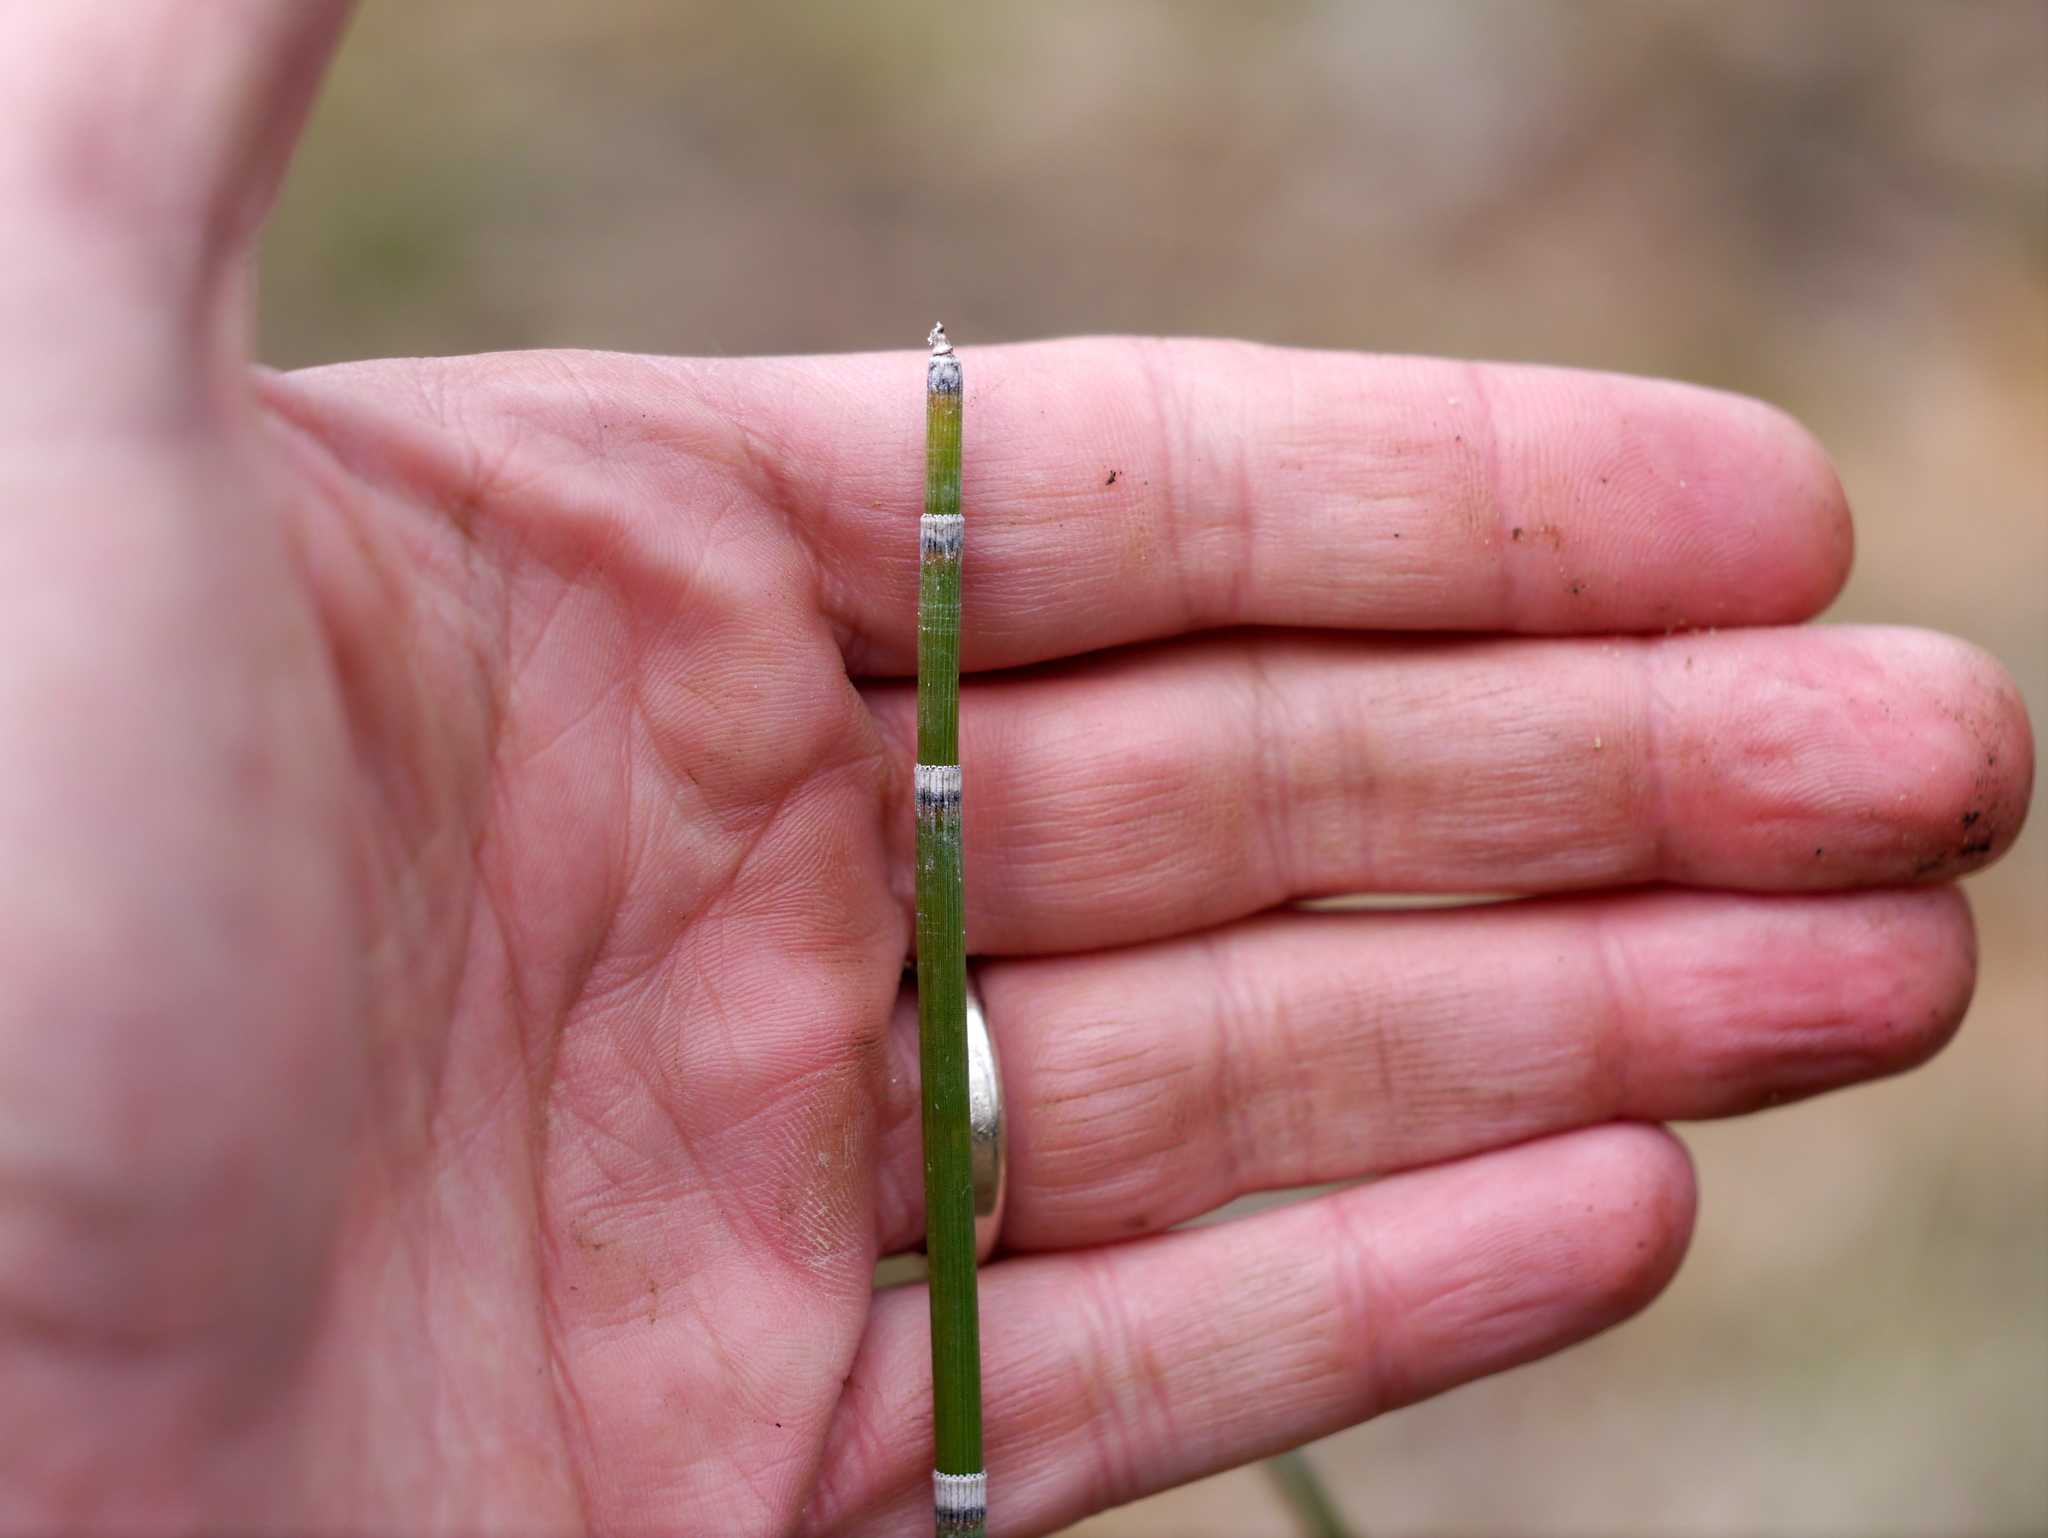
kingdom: Plantae
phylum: Tracheophyta
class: Polypodiopsida
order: Equisetales
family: Equisetaceae
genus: Equisetum
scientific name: Equisetum hyemale
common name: Rough horsetail
